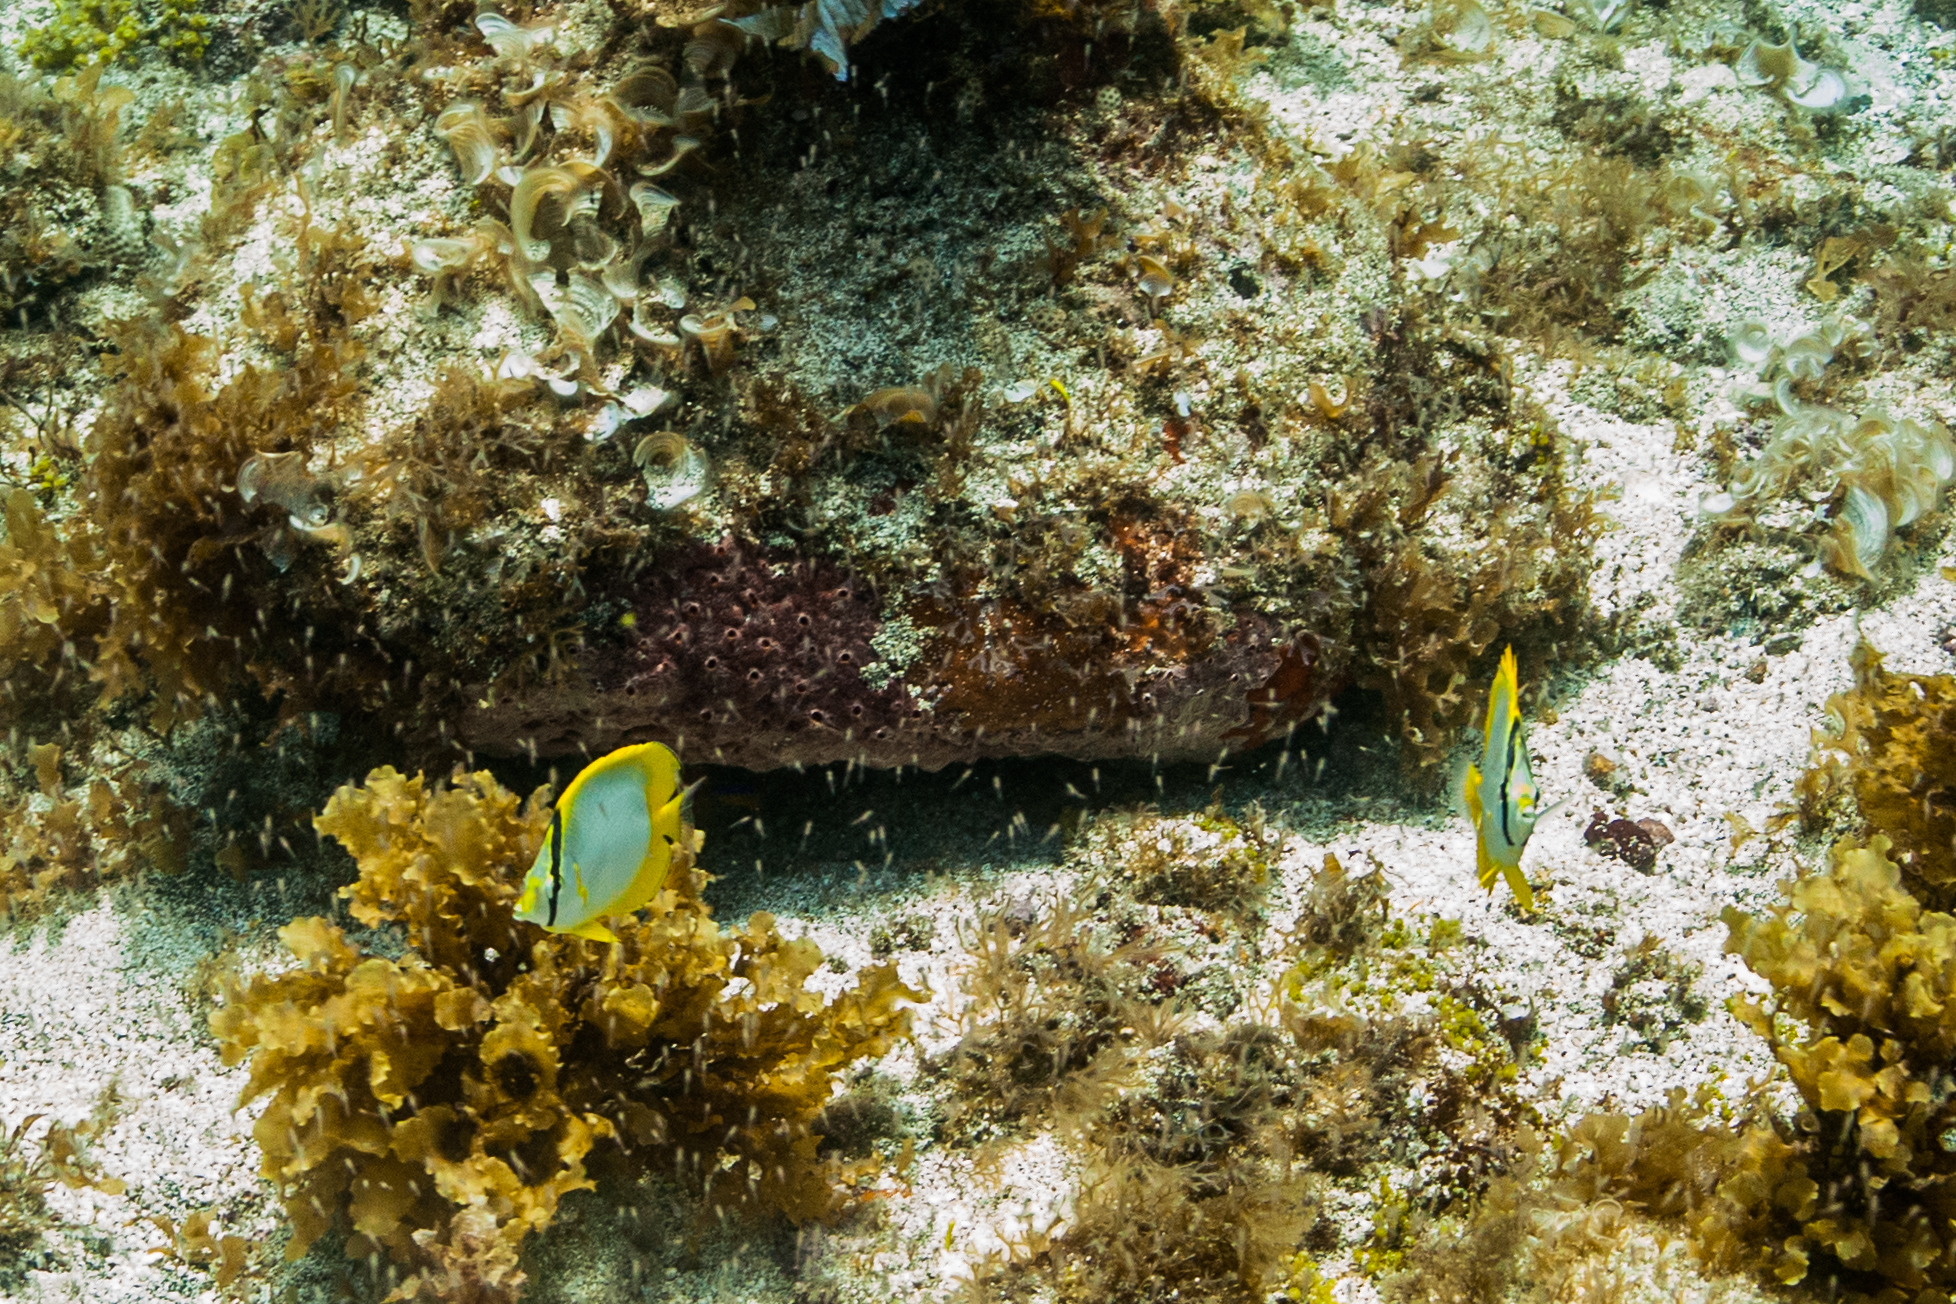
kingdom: Animalia
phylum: Chordata
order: Perciformes
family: Chaetodontidae
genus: Chaetodon
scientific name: Chaetodon ocellatus
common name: Spotfin butterflyfish
